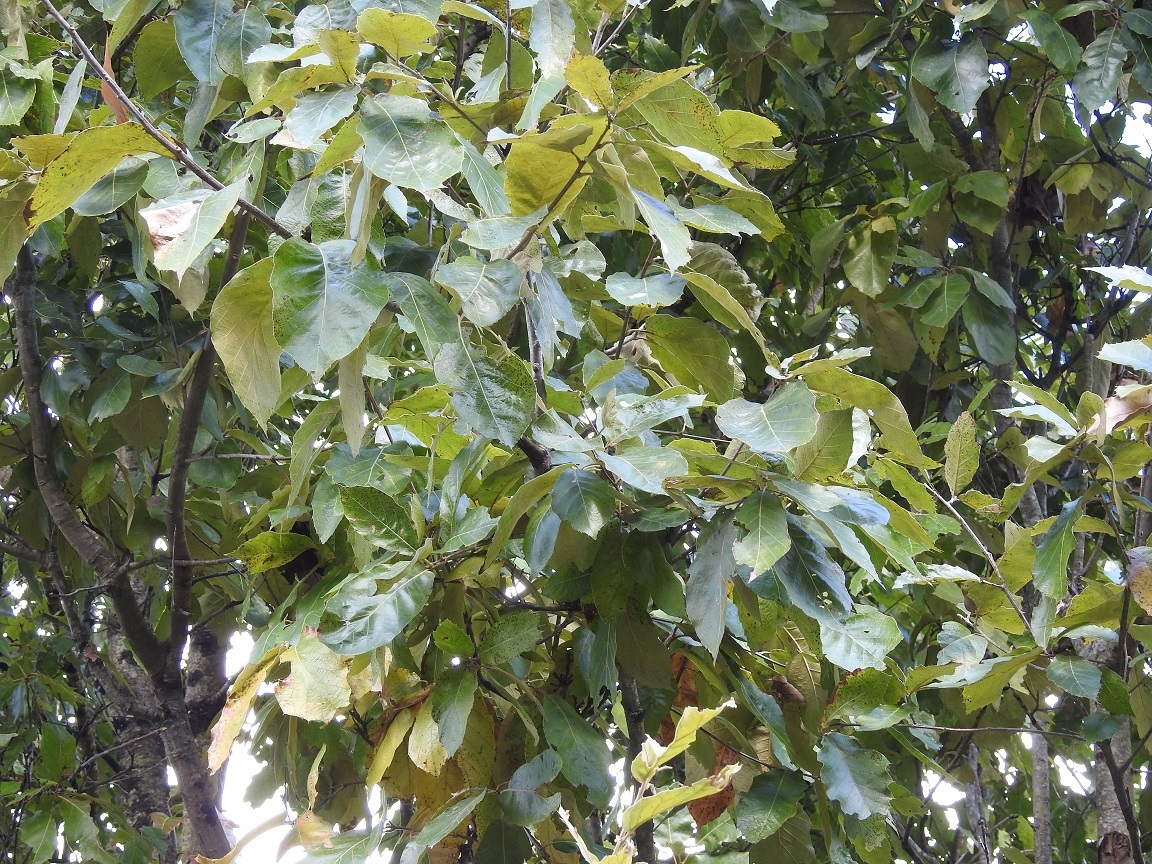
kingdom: Plantae
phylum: Tracheophyta
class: Magnoliopsida
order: Fagales
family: Fagaceae
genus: Quercus
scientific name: Quercus calophylla
